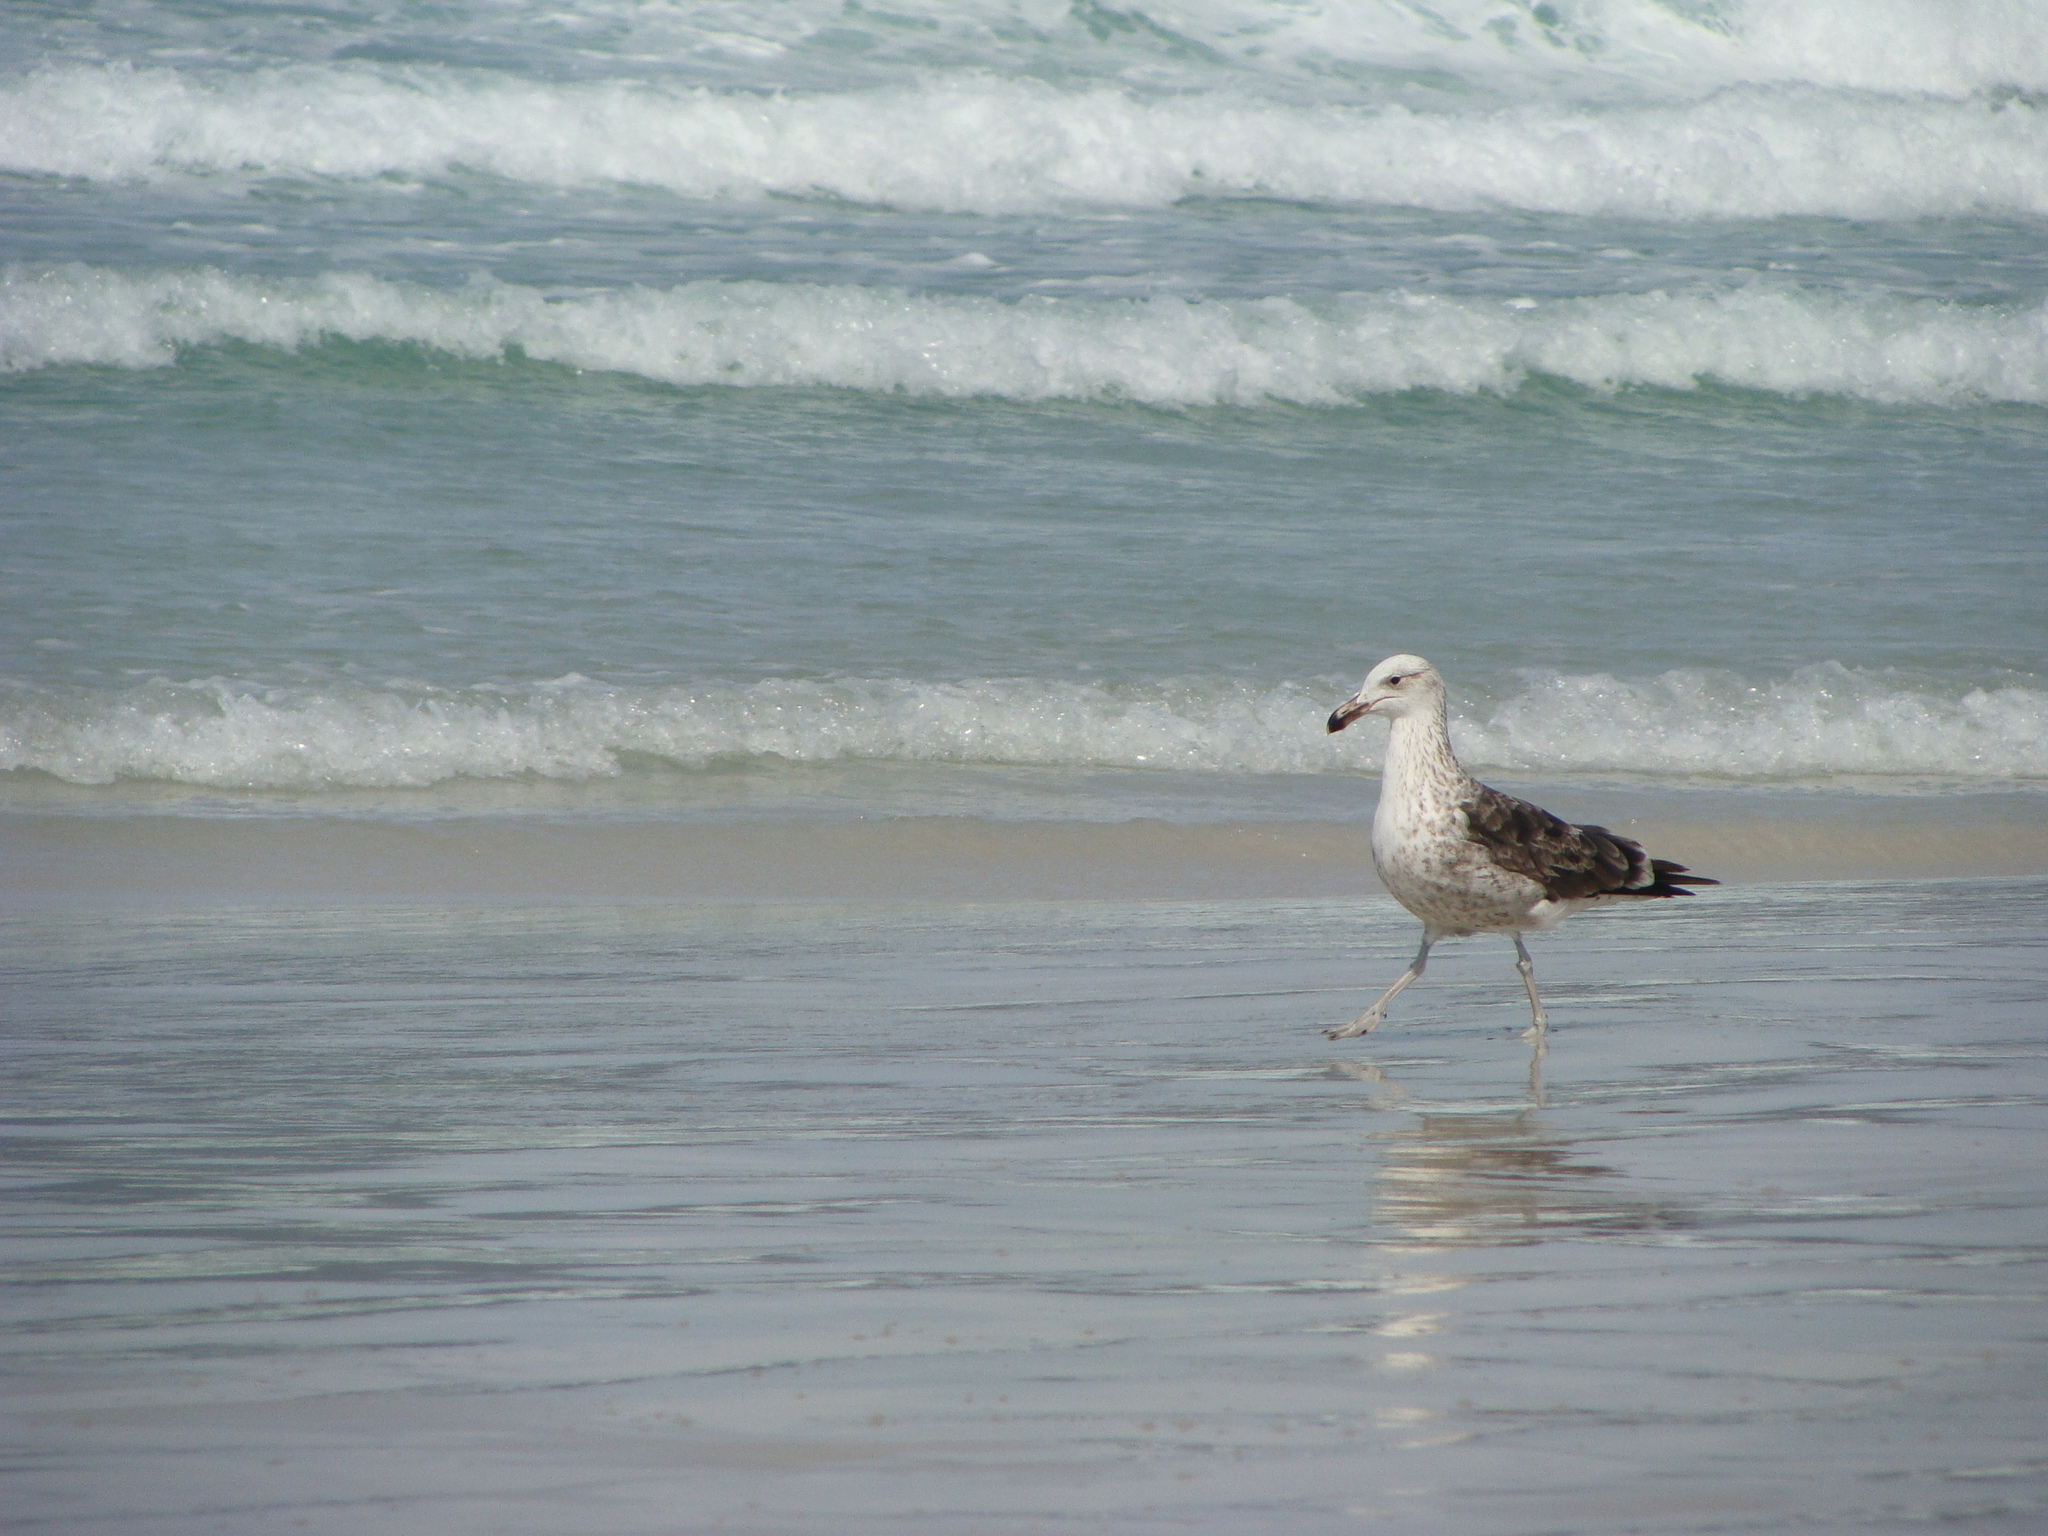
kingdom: Animalia
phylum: Chordata
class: Aves
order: Charadriiformes
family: Laridae
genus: Larus
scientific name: Larus dominicanus
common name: Kelp gull
